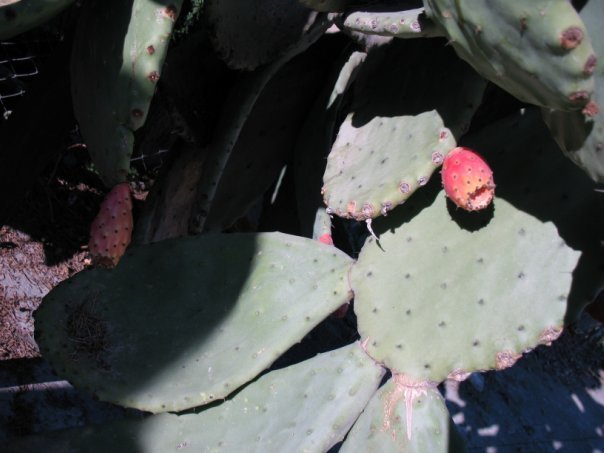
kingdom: Plantae
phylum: Tracheophyta
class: Magnoliopsida
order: Caryophyllales
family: Cactaceae
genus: Opuntia
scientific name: Opuntia ficus-indica
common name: Barbary fig
